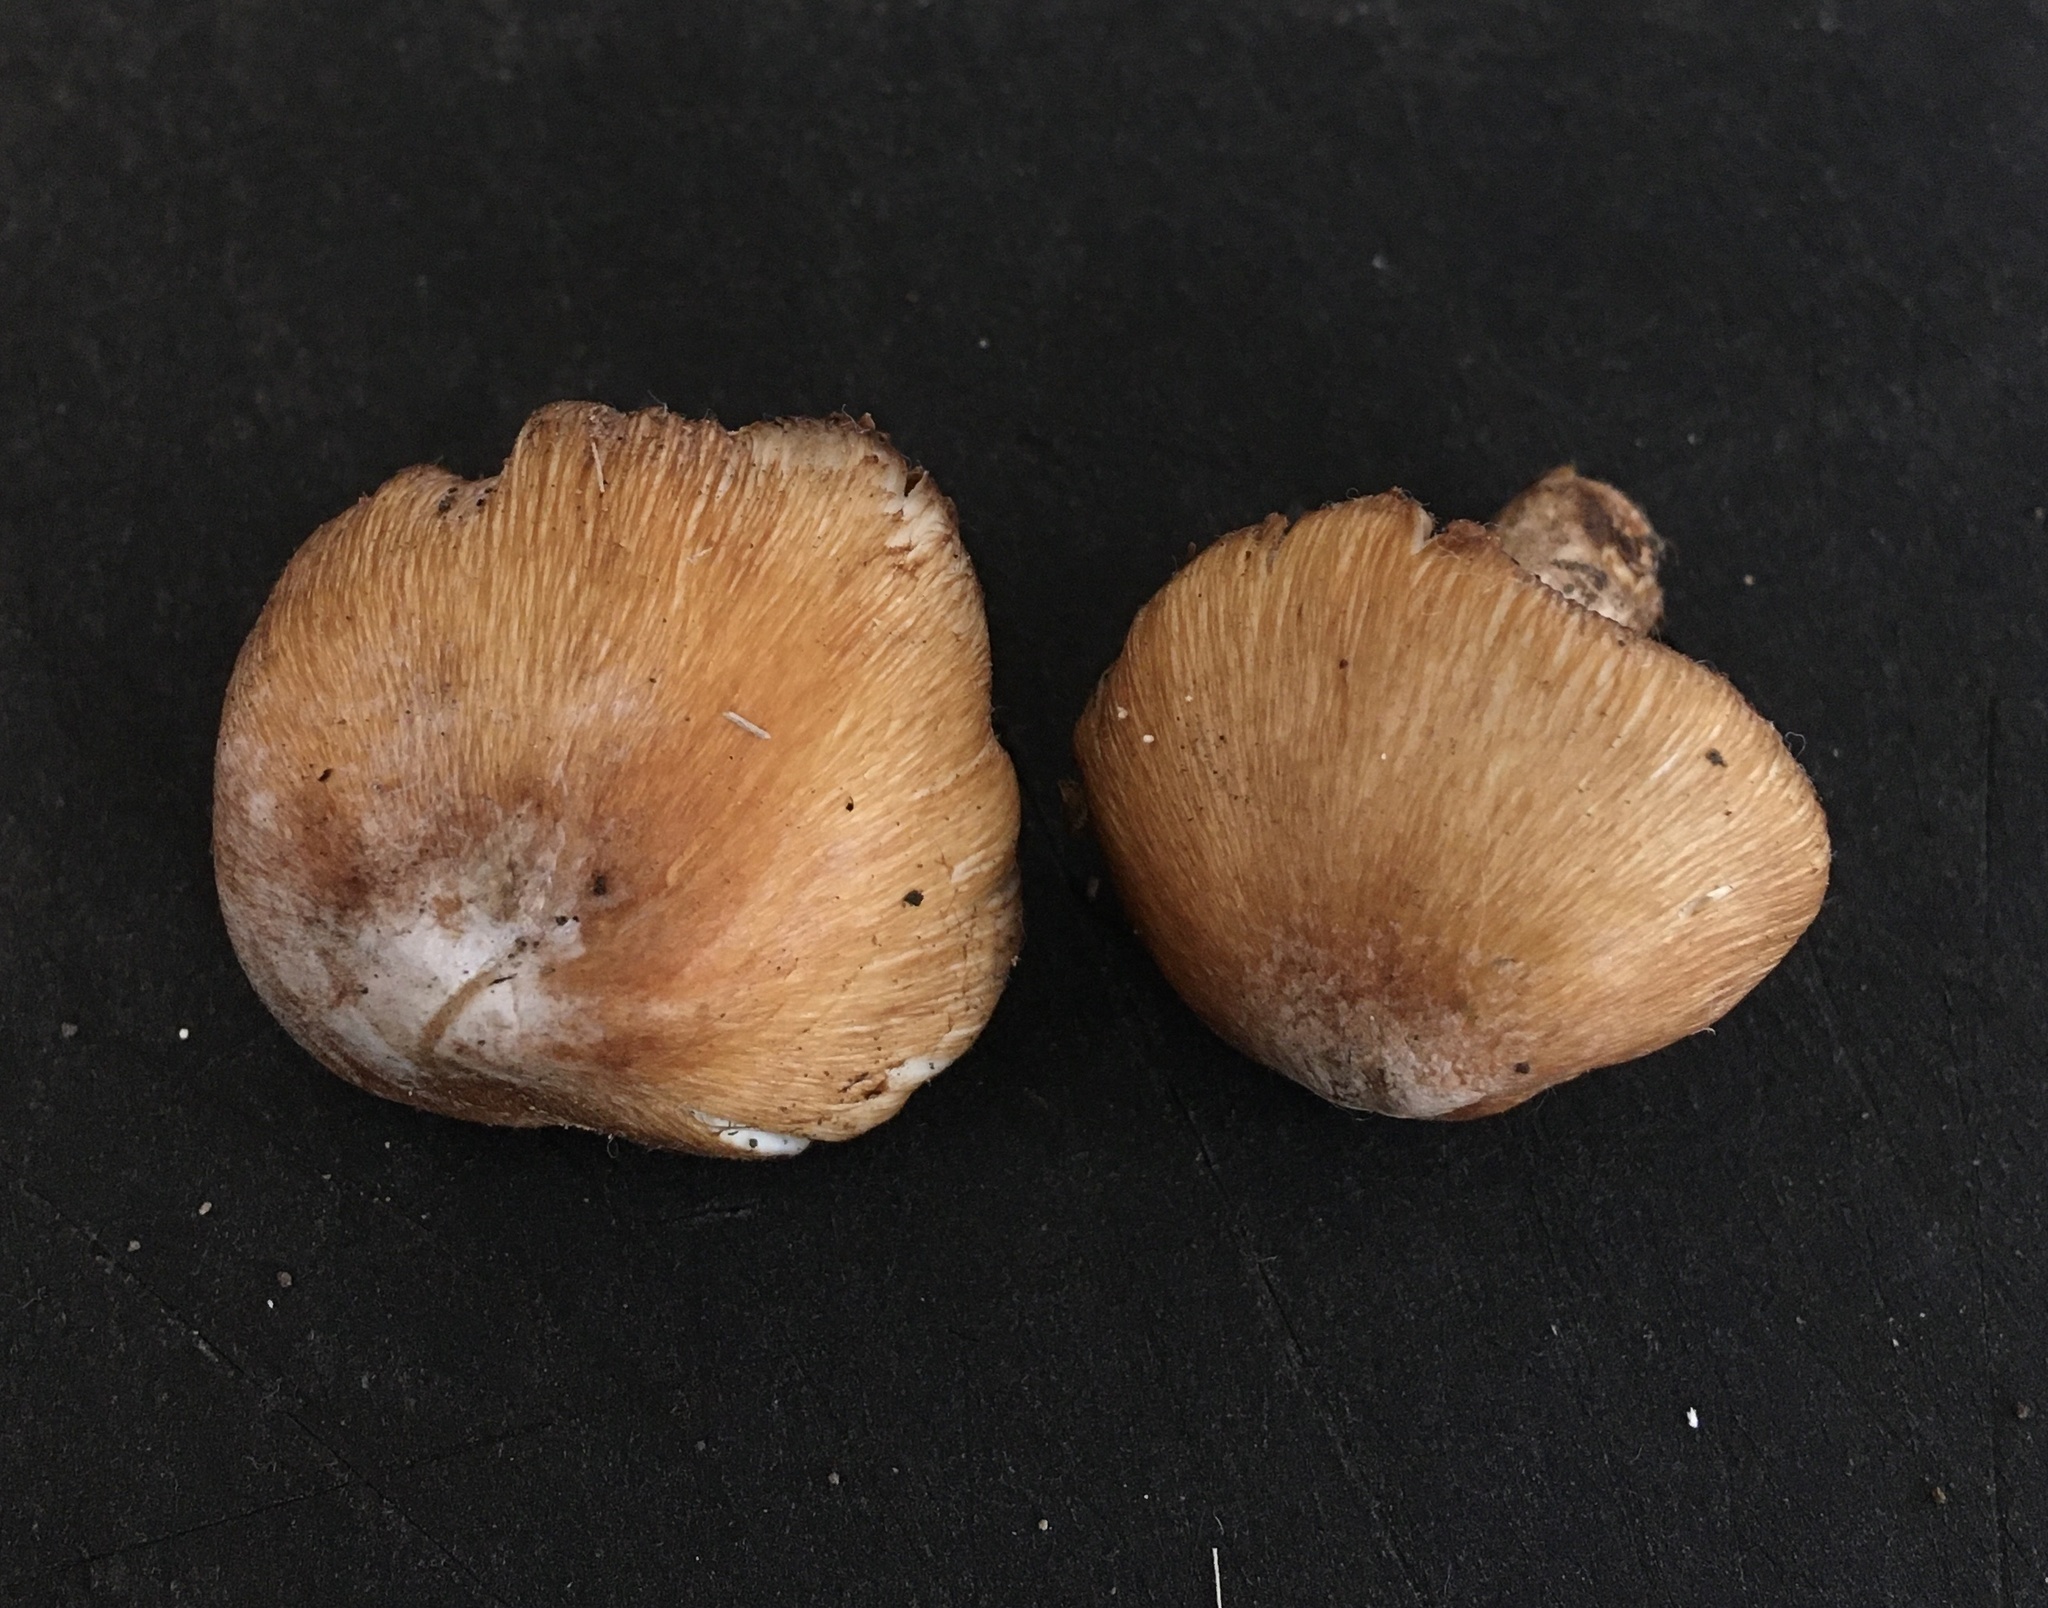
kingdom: Fungi
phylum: Basidiomycota
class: Agaricomycetes
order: Agaricales
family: Inocybaceae
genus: Inosperma
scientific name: Inosperma lanatodiscum
